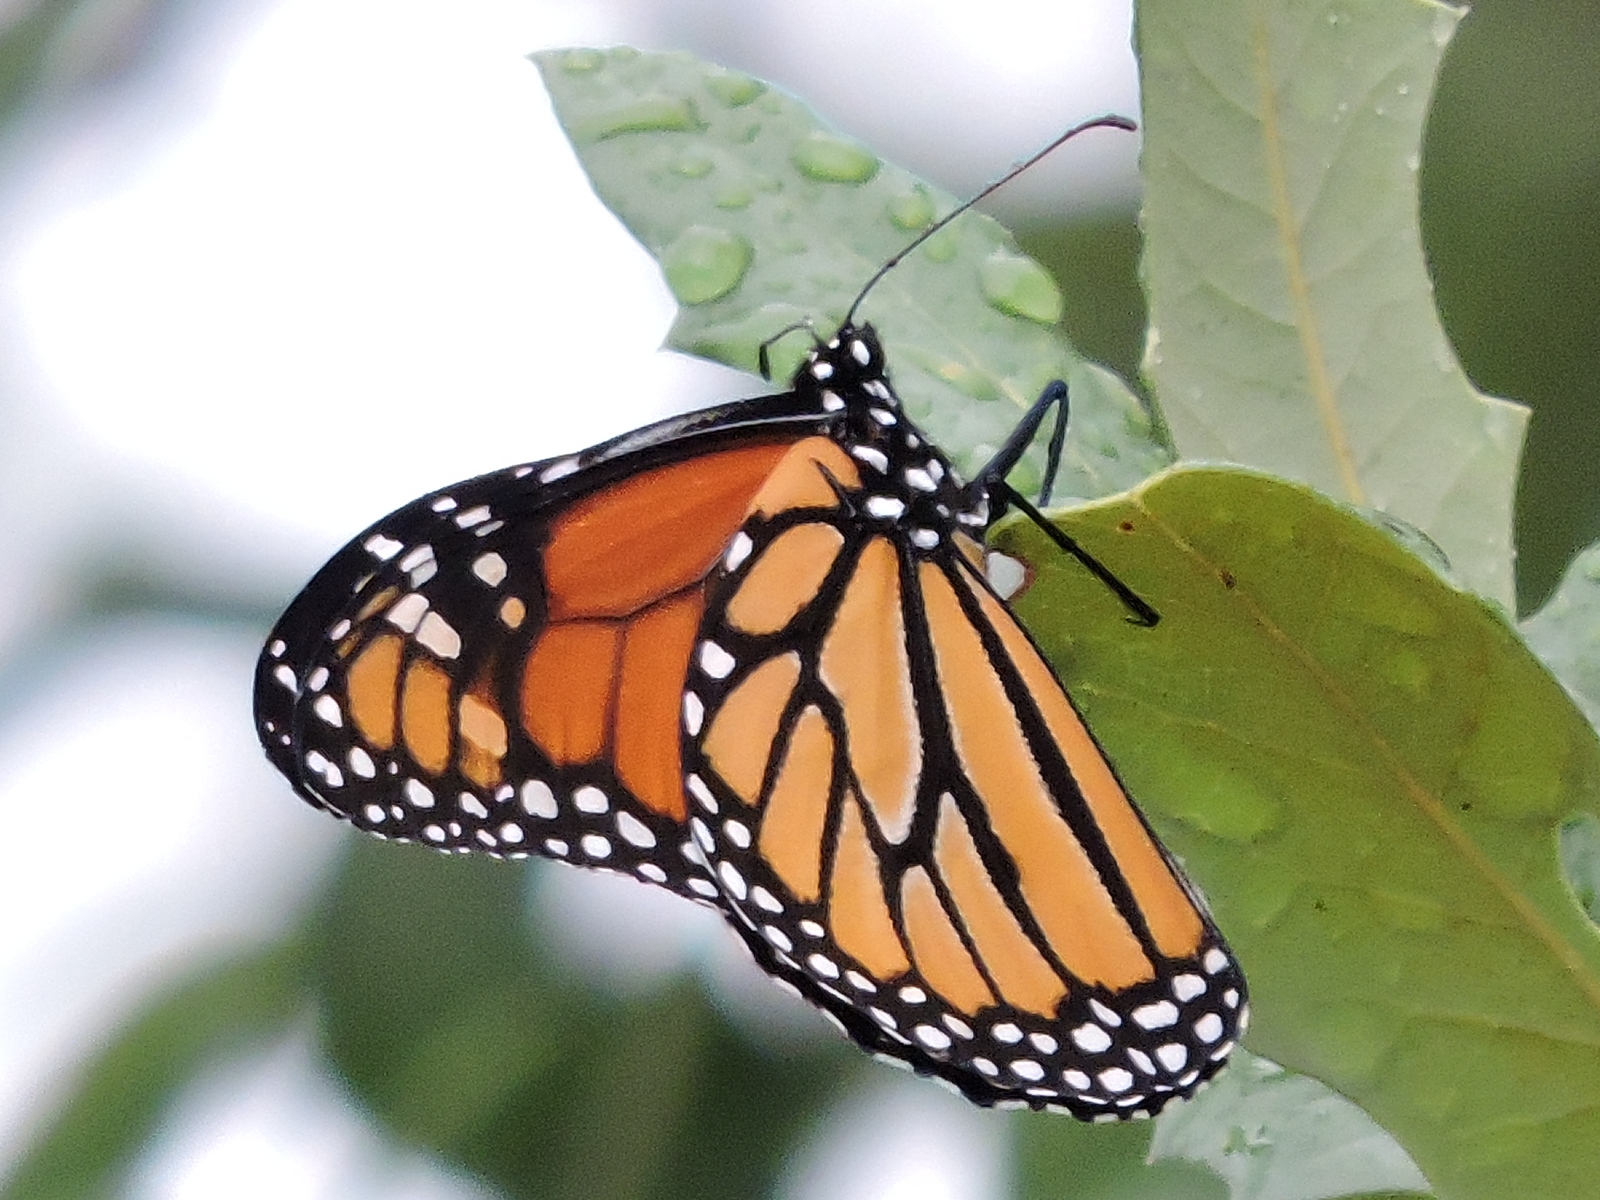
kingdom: Animalia
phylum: Arthropoda
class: Insecta
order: Lepidoptera
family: Nymphalidae
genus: Danaus
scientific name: Danaus plexippus
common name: Monarch
